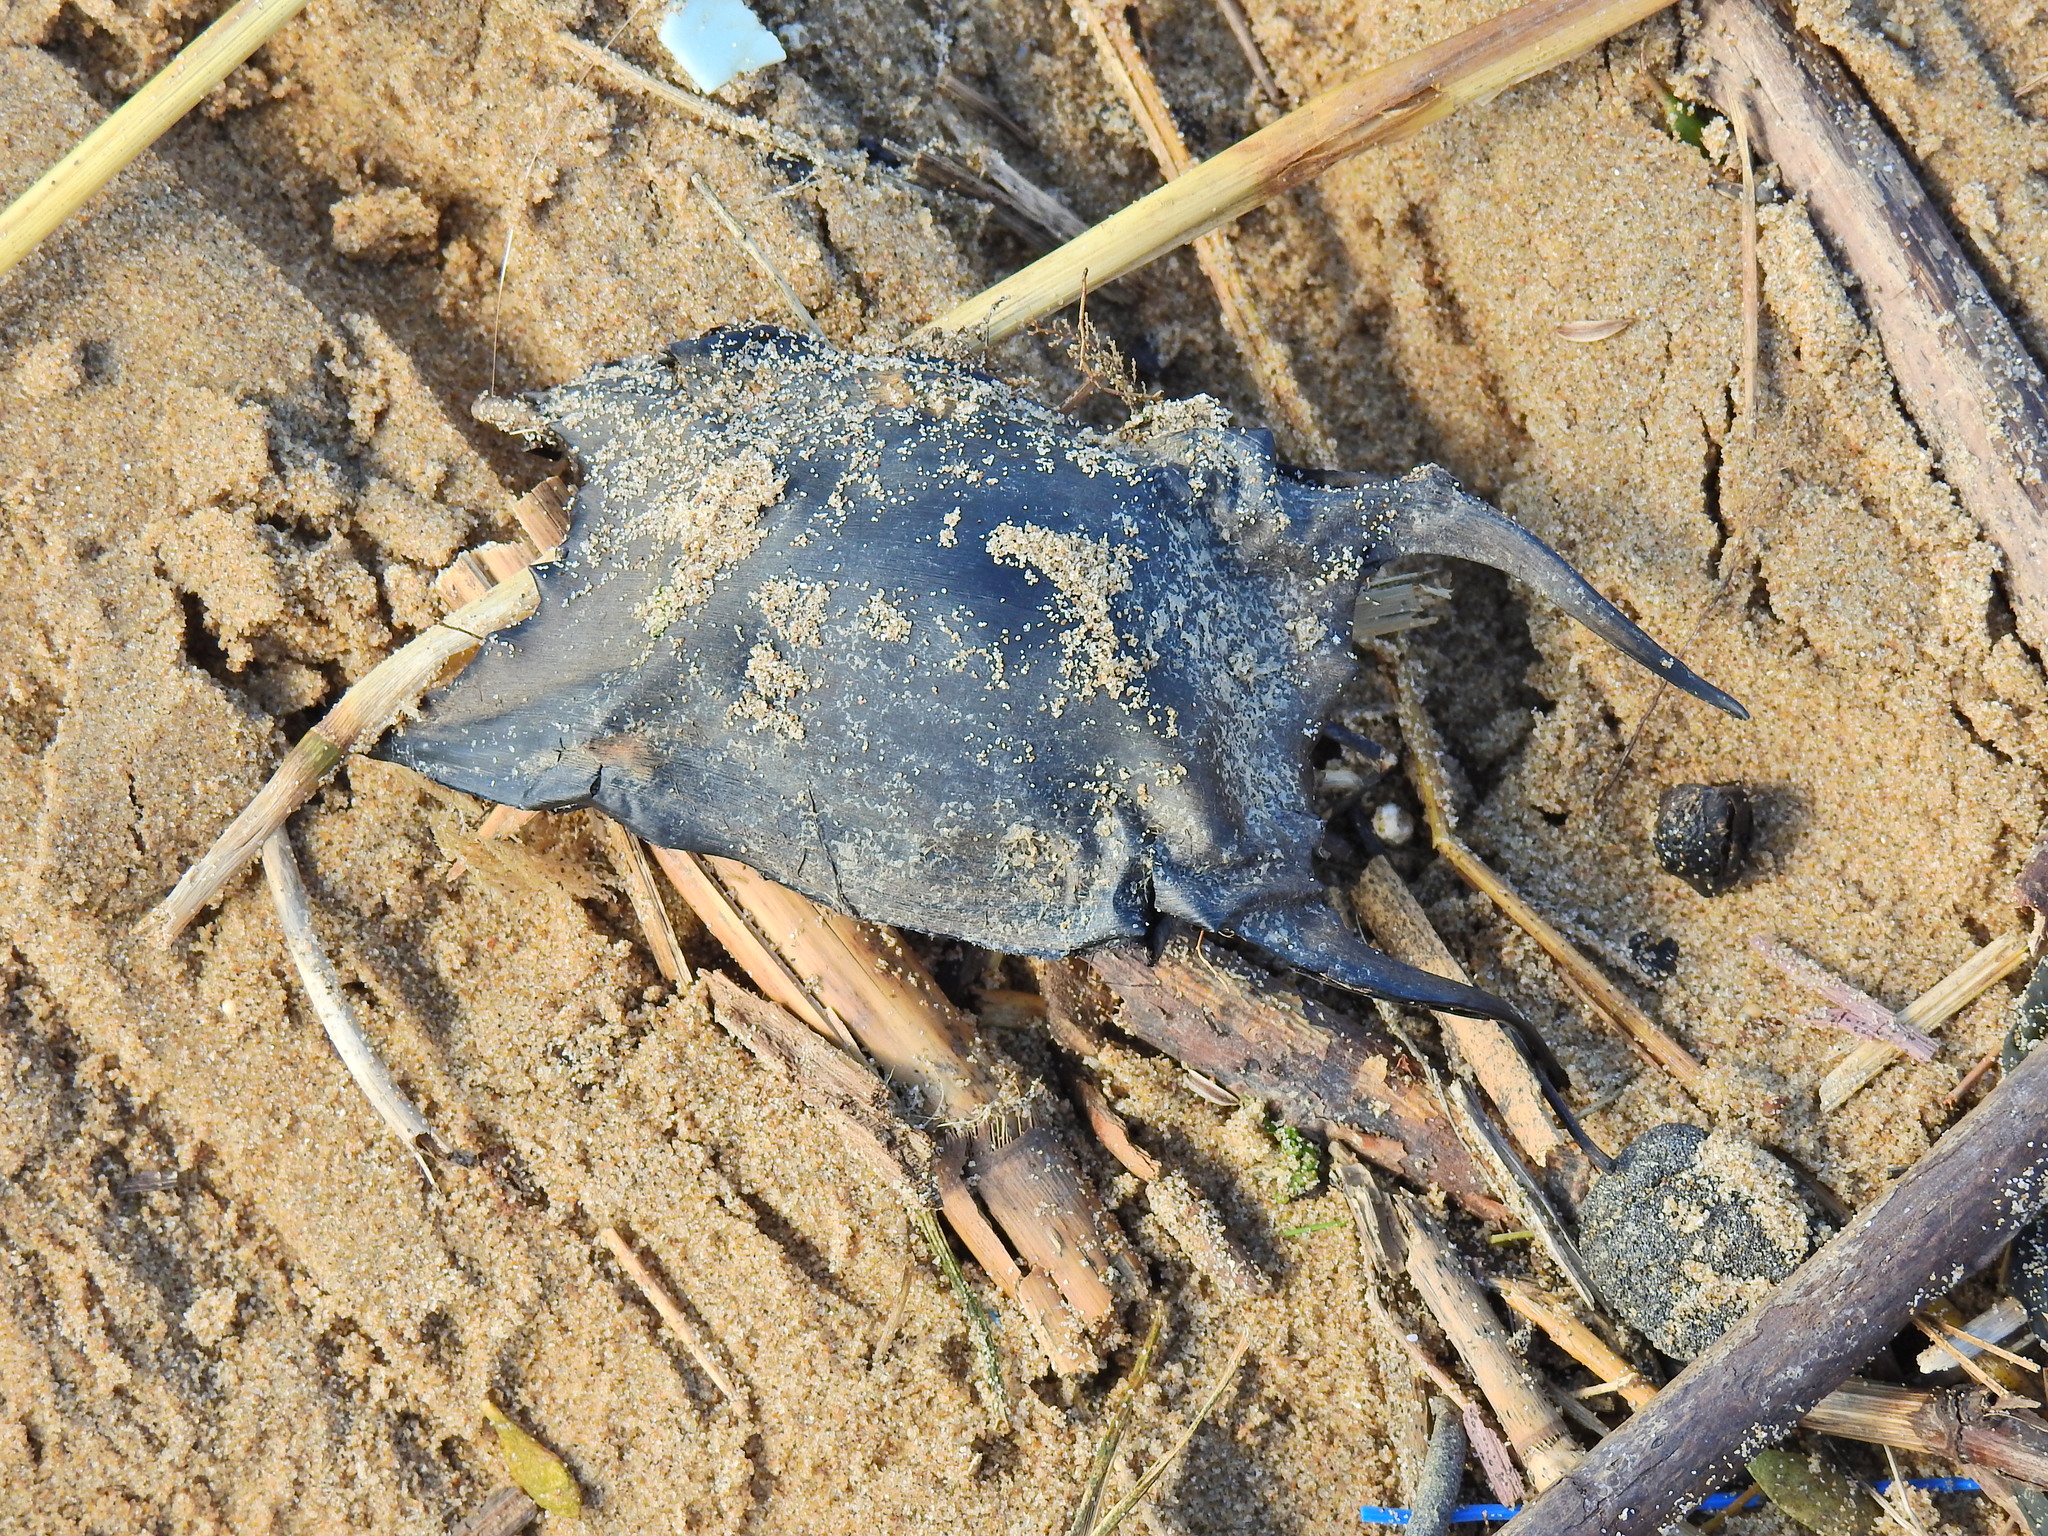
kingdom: Animalia
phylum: Chordata
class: Elasmobranchii
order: Rajiformes
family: Rajidae
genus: Raja
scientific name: Raja clavata
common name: Thornback ray
